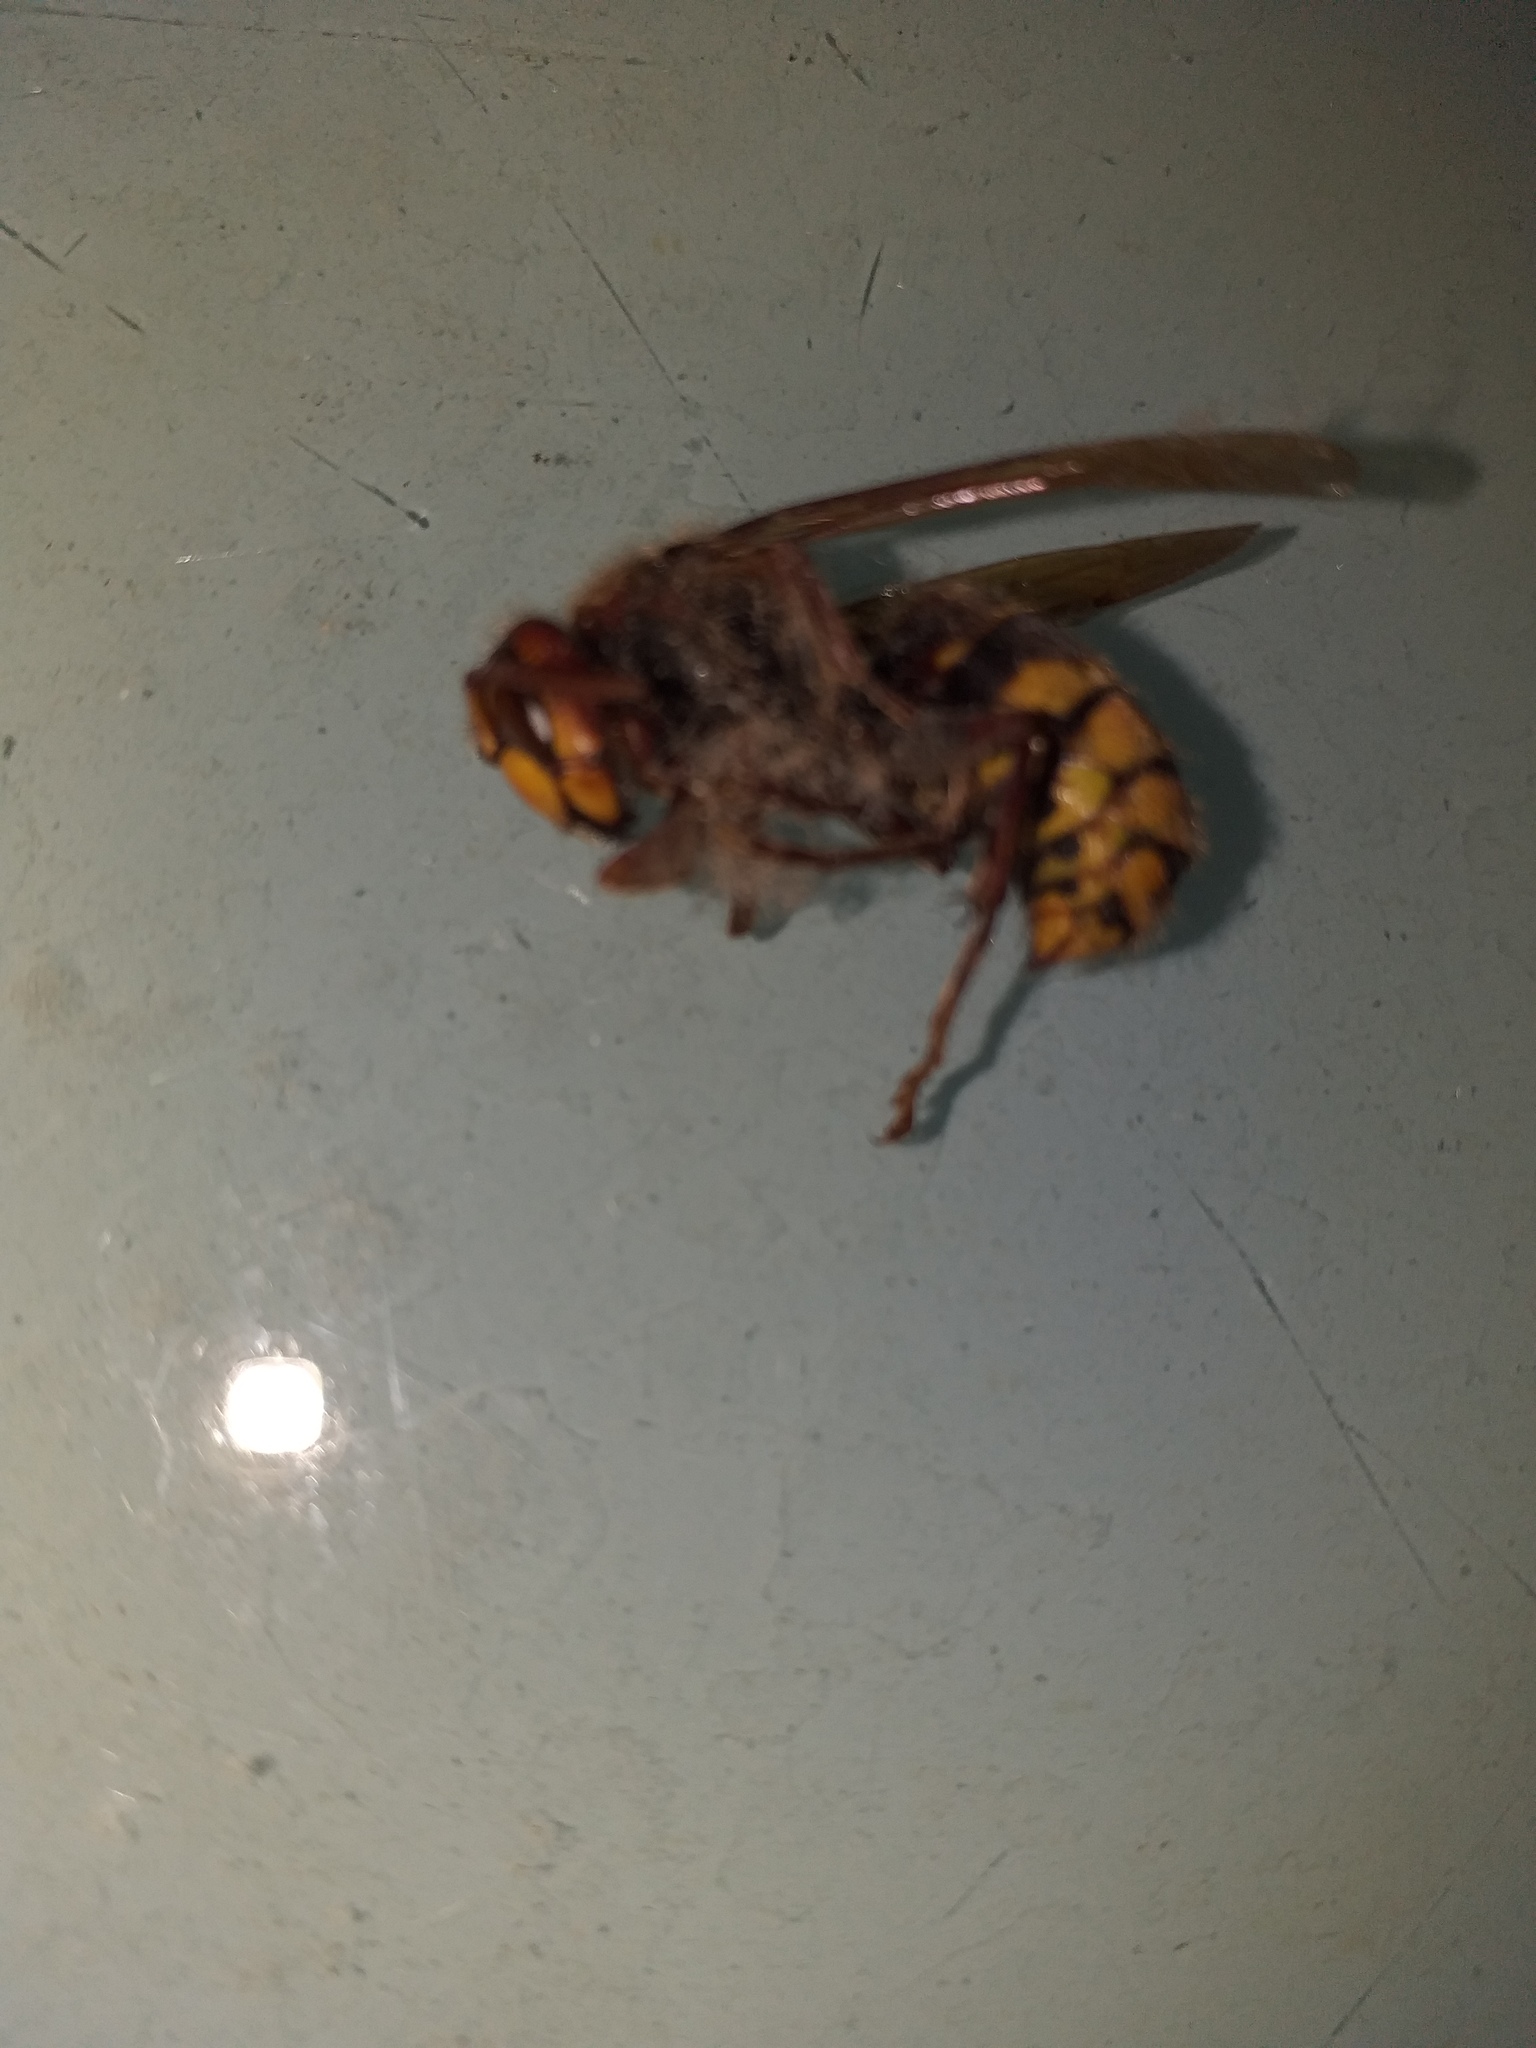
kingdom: Animalia
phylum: Arthropoda
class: Insecta
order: Hymenoptera
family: Vespidae
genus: Vespa
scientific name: Vespa crabro
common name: Hornet
